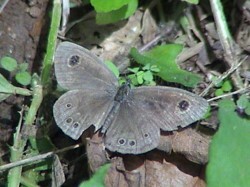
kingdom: Animalia
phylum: Arthropoda
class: Insecta
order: Lepidoptera
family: Nymphalidae
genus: Ypthima
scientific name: Ypthima baldus
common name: Common five-ring
